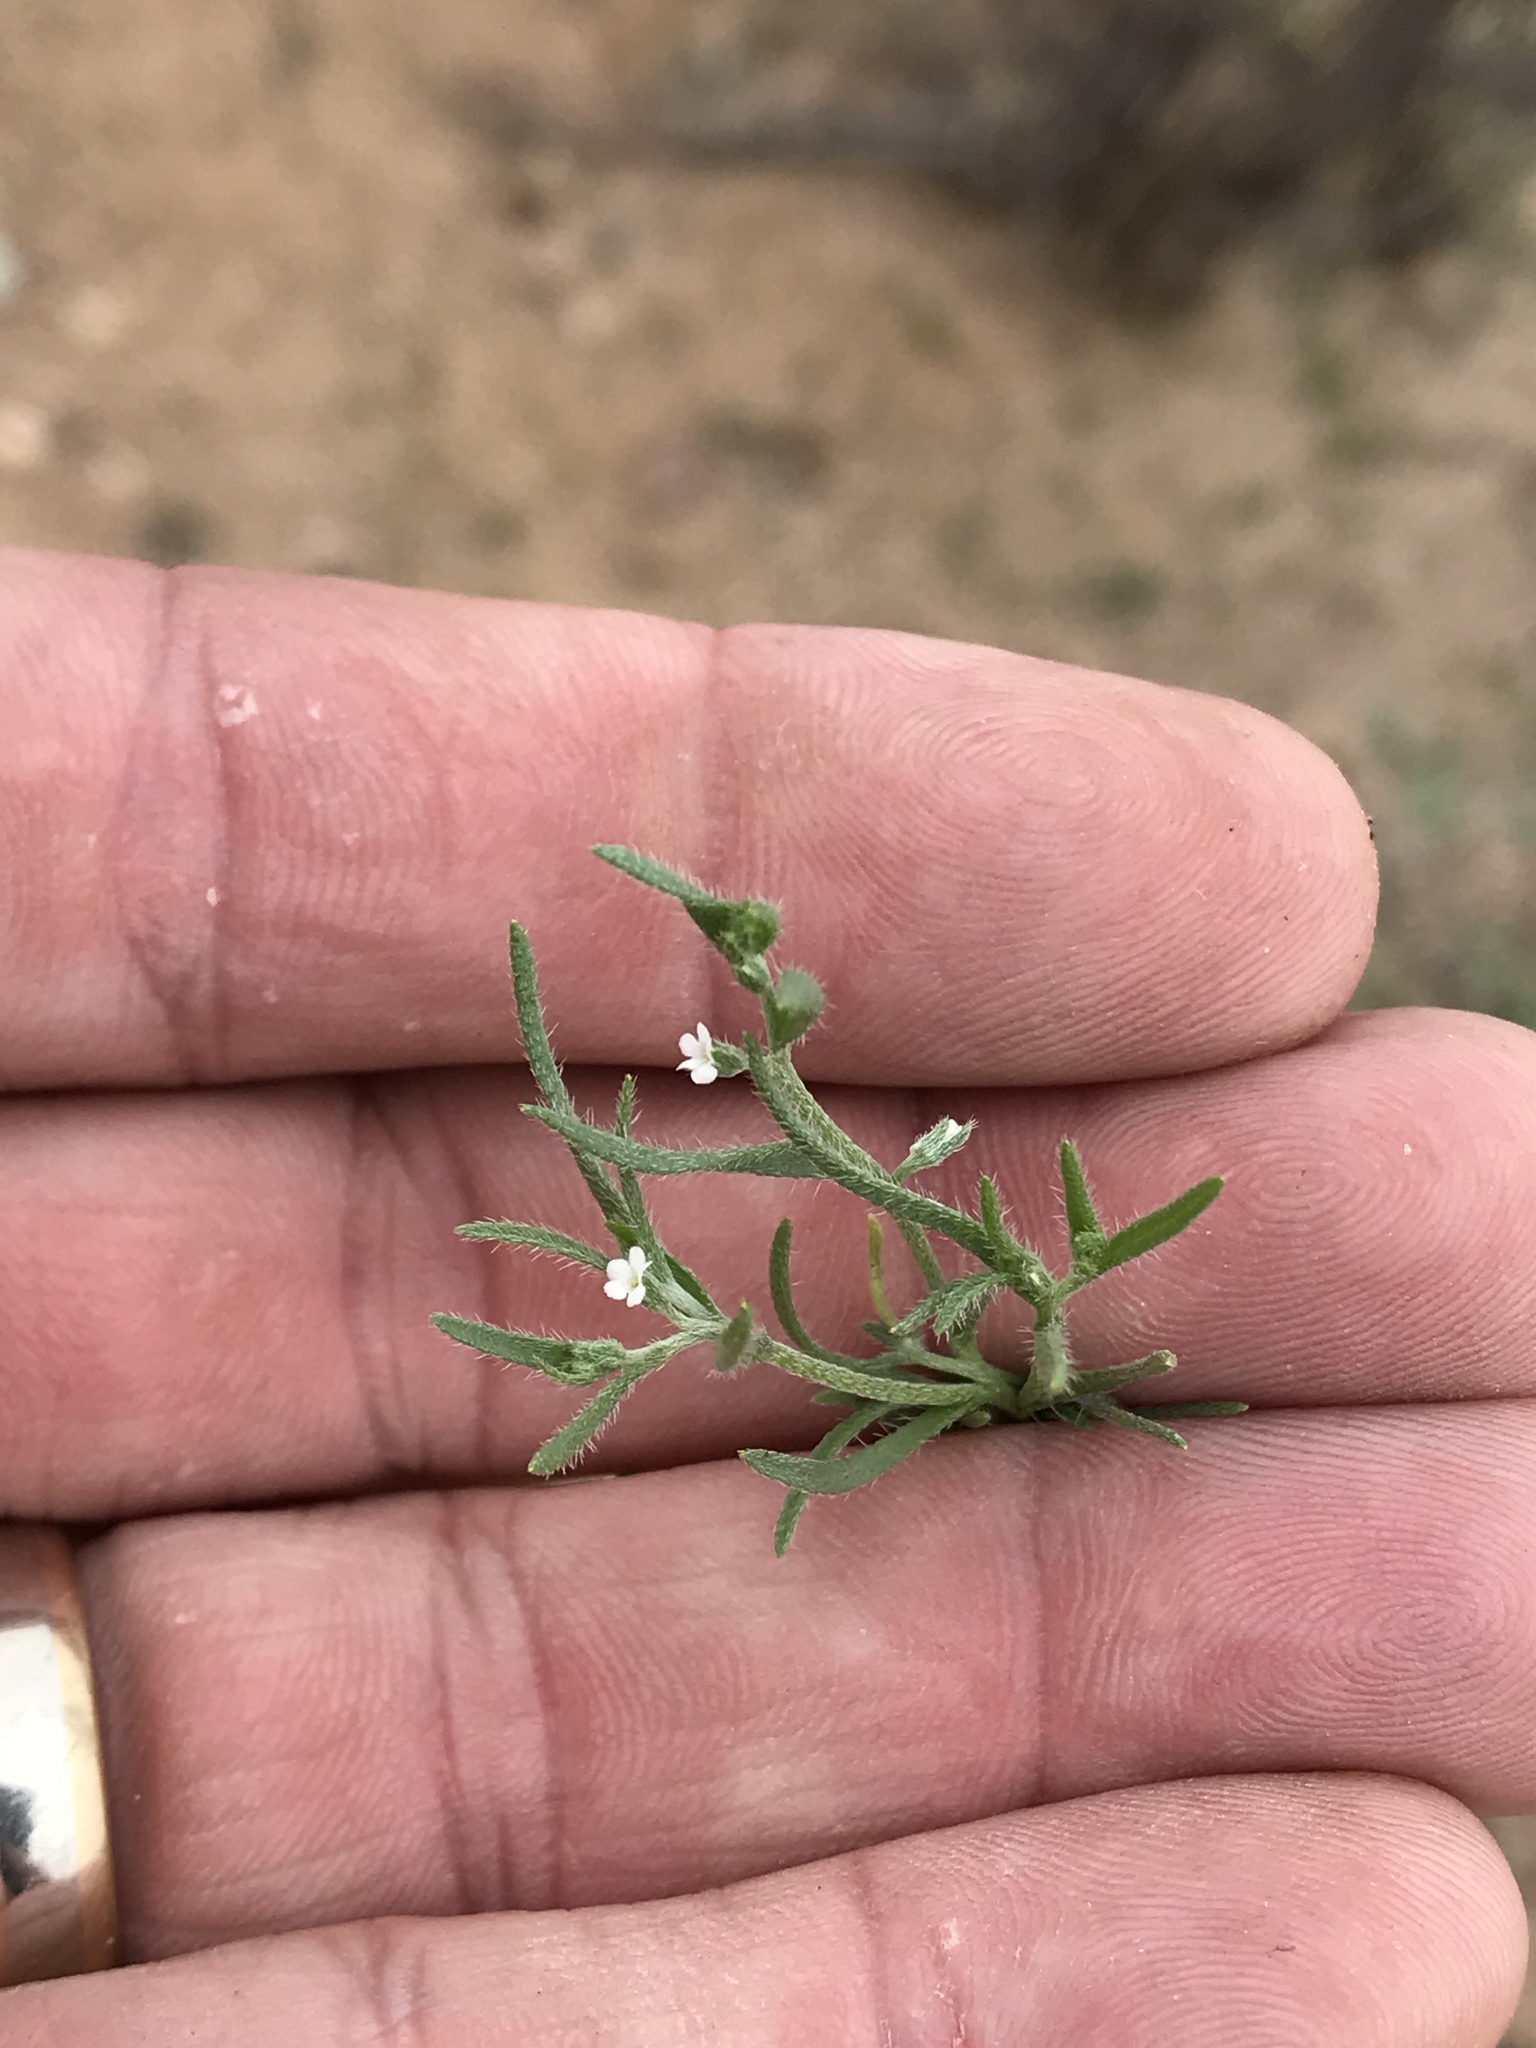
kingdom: Plantae
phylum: Tracheophyta
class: Magnoliopsida
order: Boraginales
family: Boraginaceae
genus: Pectocarya
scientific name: Pectocarya
